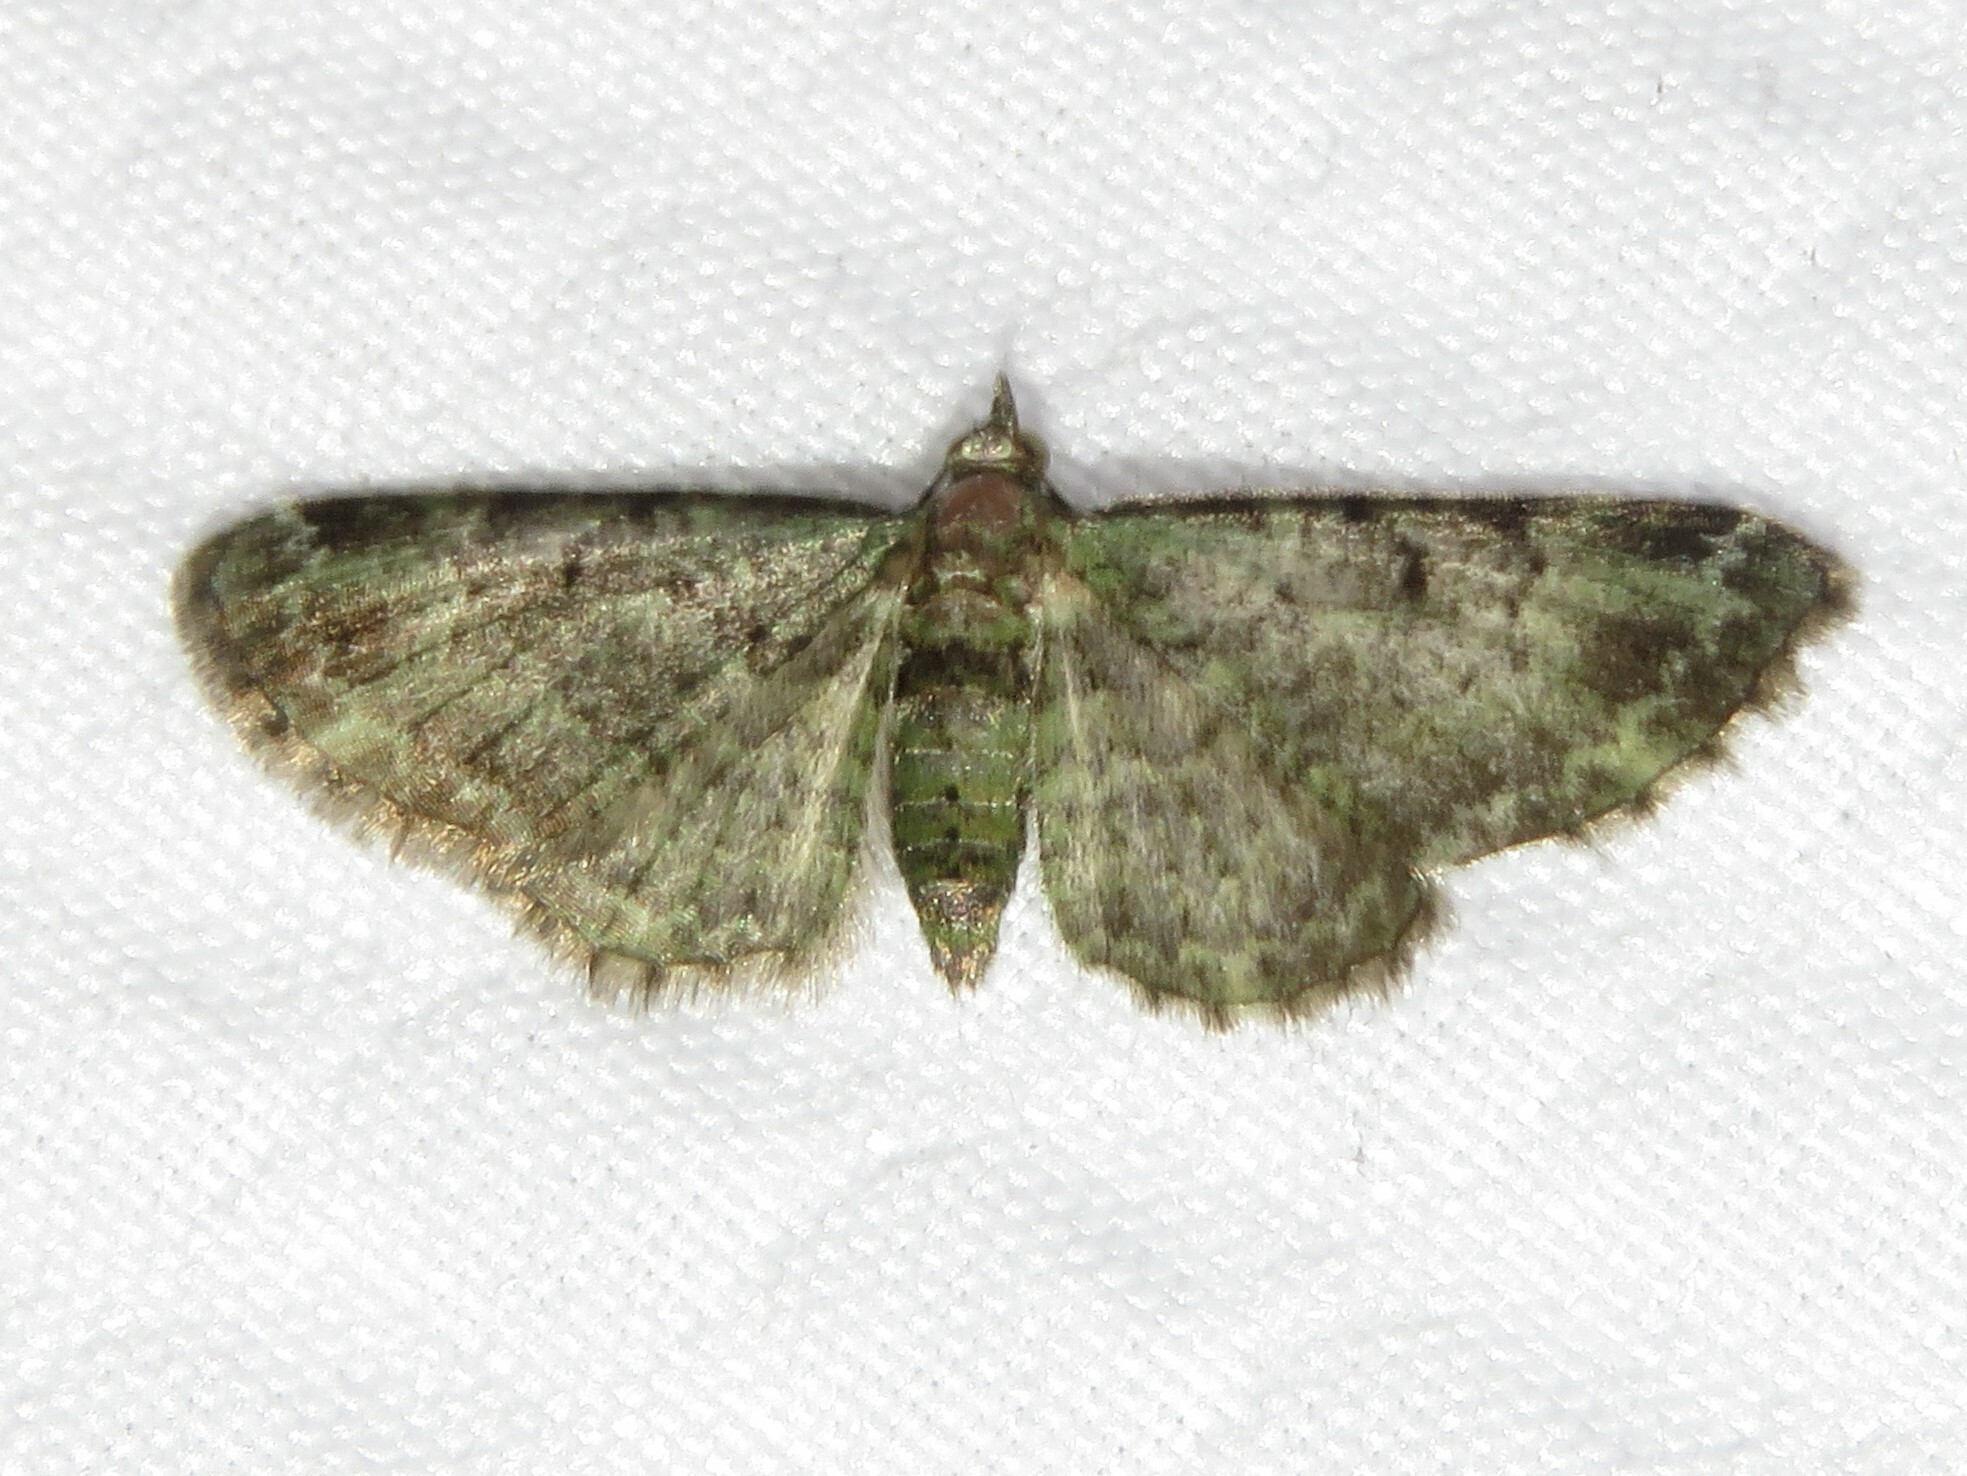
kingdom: Animalia
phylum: Arthropoda
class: Insecta
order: Lepidoptera
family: Geometridae
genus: Pasiphila
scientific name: Pasiphila rectangulata
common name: Green pug
